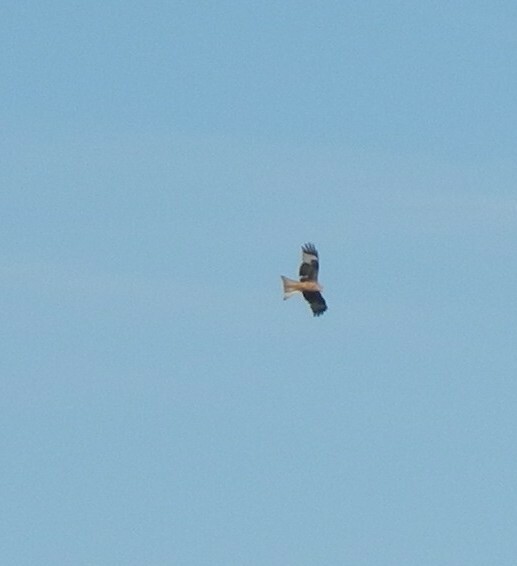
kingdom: Animalia
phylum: Chordata
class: Aves
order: Accipitriformes
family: Accipitridae
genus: Milvus
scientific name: Milvus milvus
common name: Red kite
